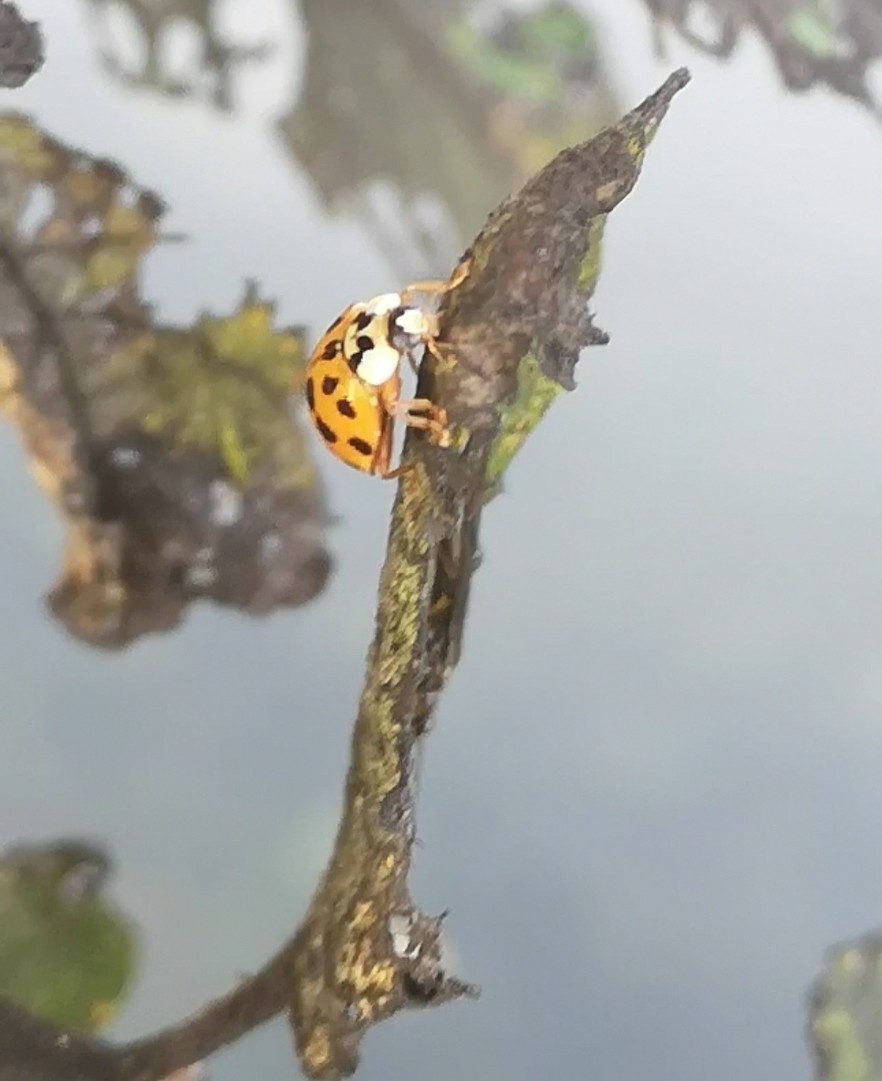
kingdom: Animalia
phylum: Arthropoda
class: Insecta
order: Coleoptera
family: Coccinellidae
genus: Harmonia
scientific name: Harmonia axyridis
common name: Harlequin ladybird
